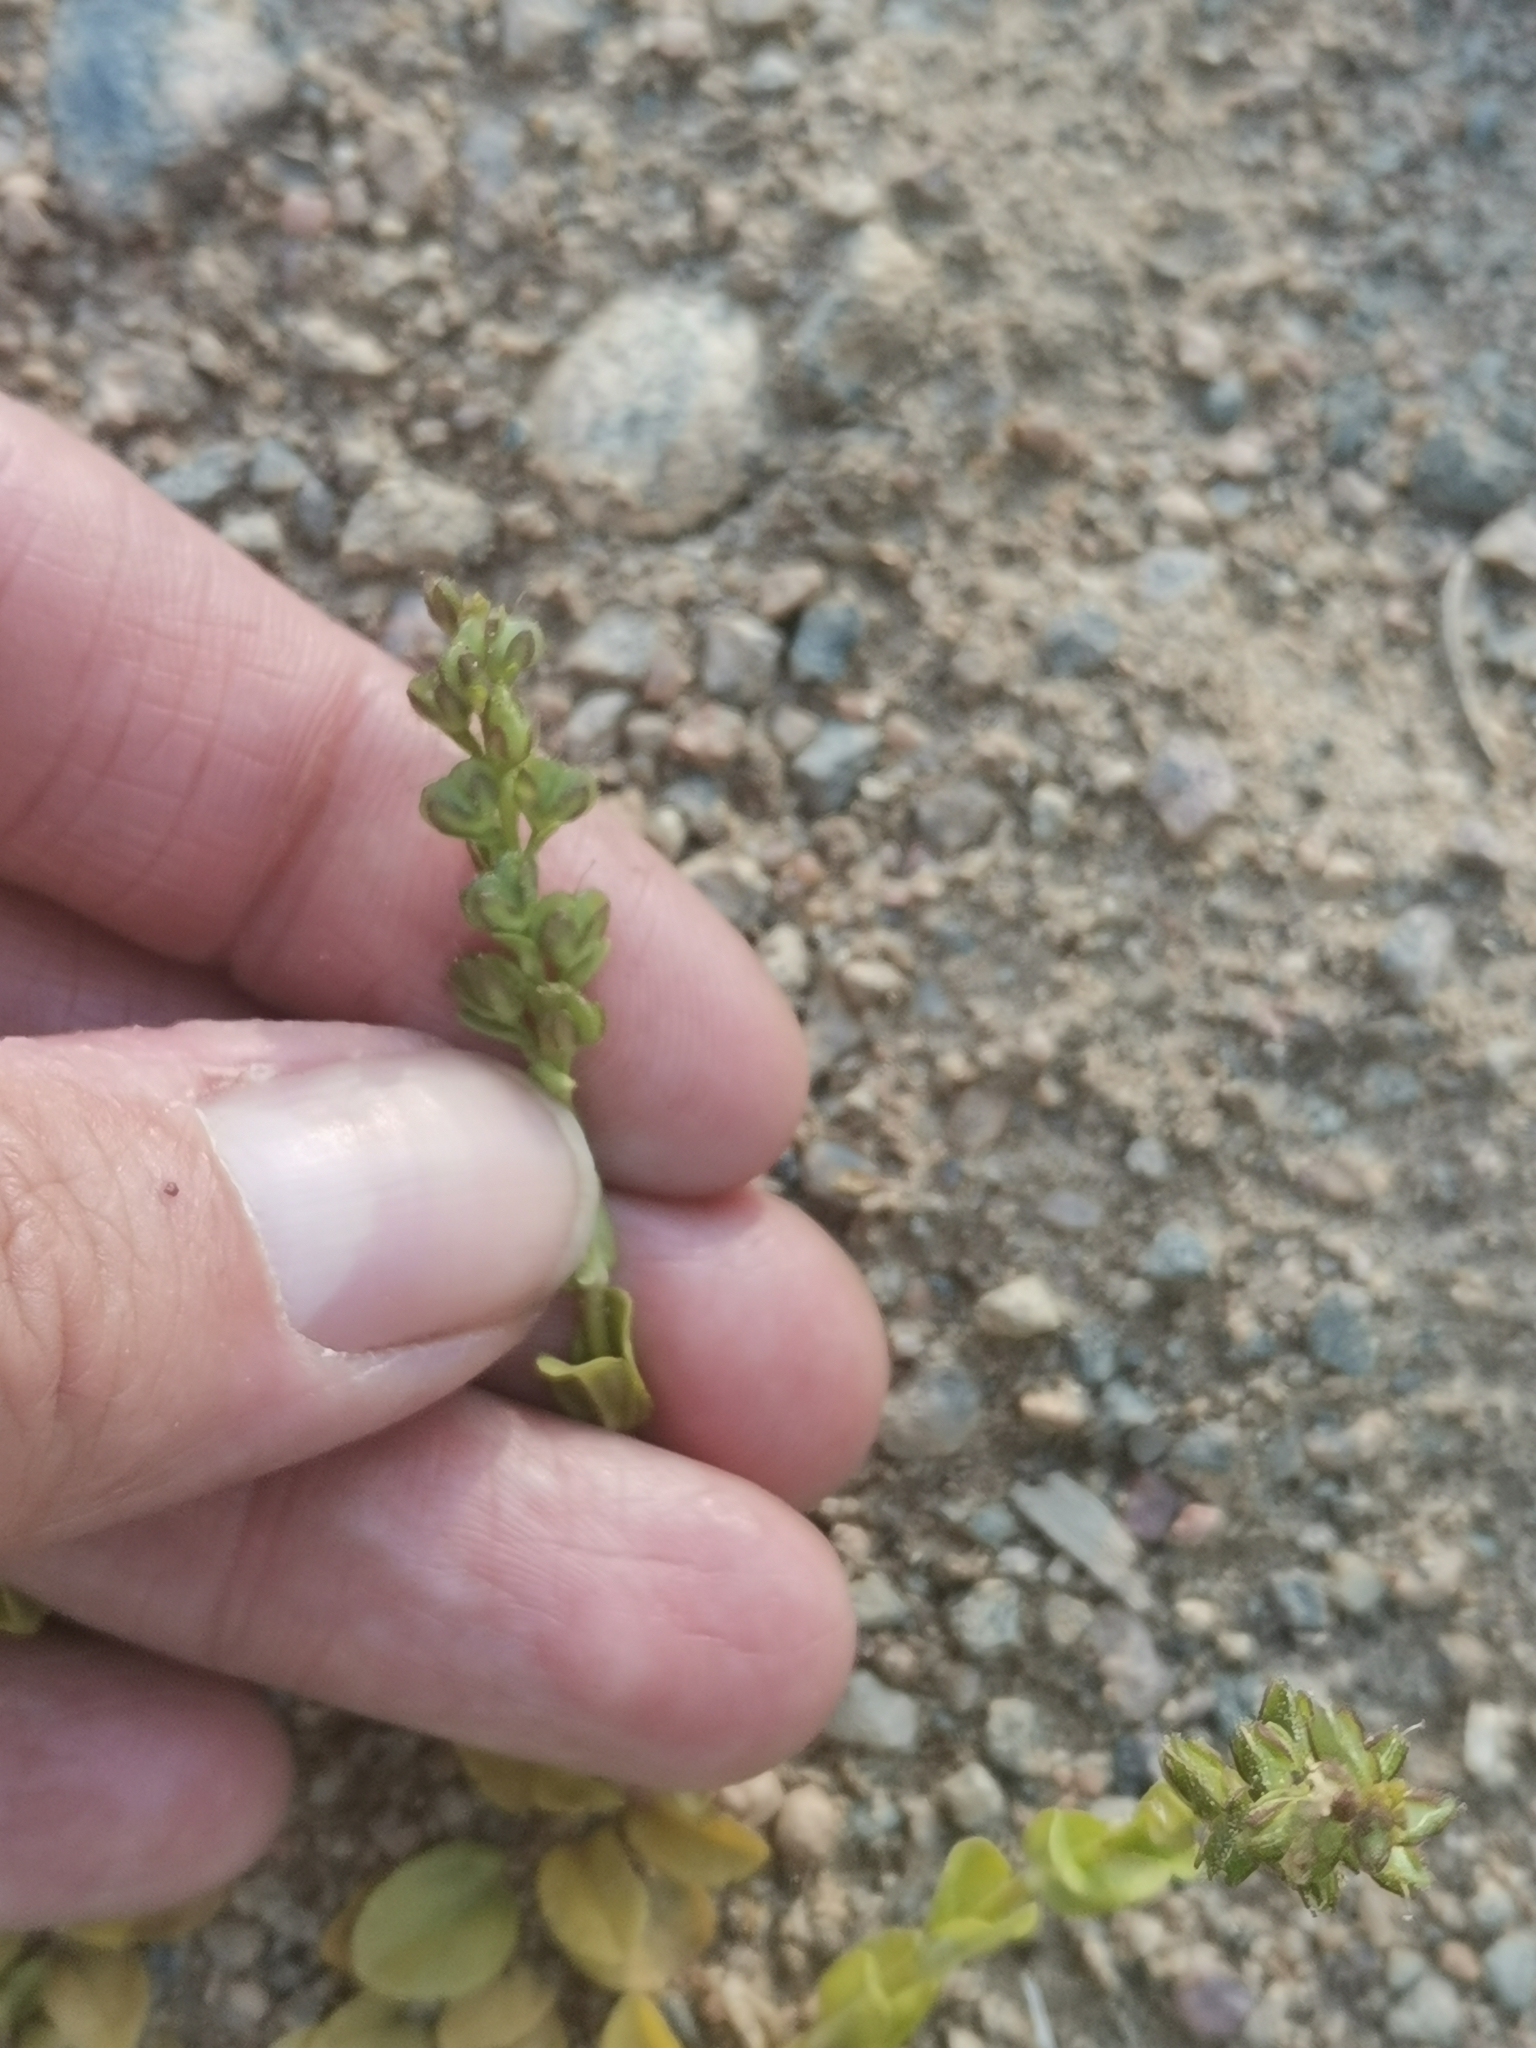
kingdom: Plantae
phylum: Tracheophyta
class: Magnoliopsida
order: Lamiales
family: Plantaginaceae
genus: Veronica
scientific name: Veronica serpyllifolia
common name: Thyme-leaved speedwell
